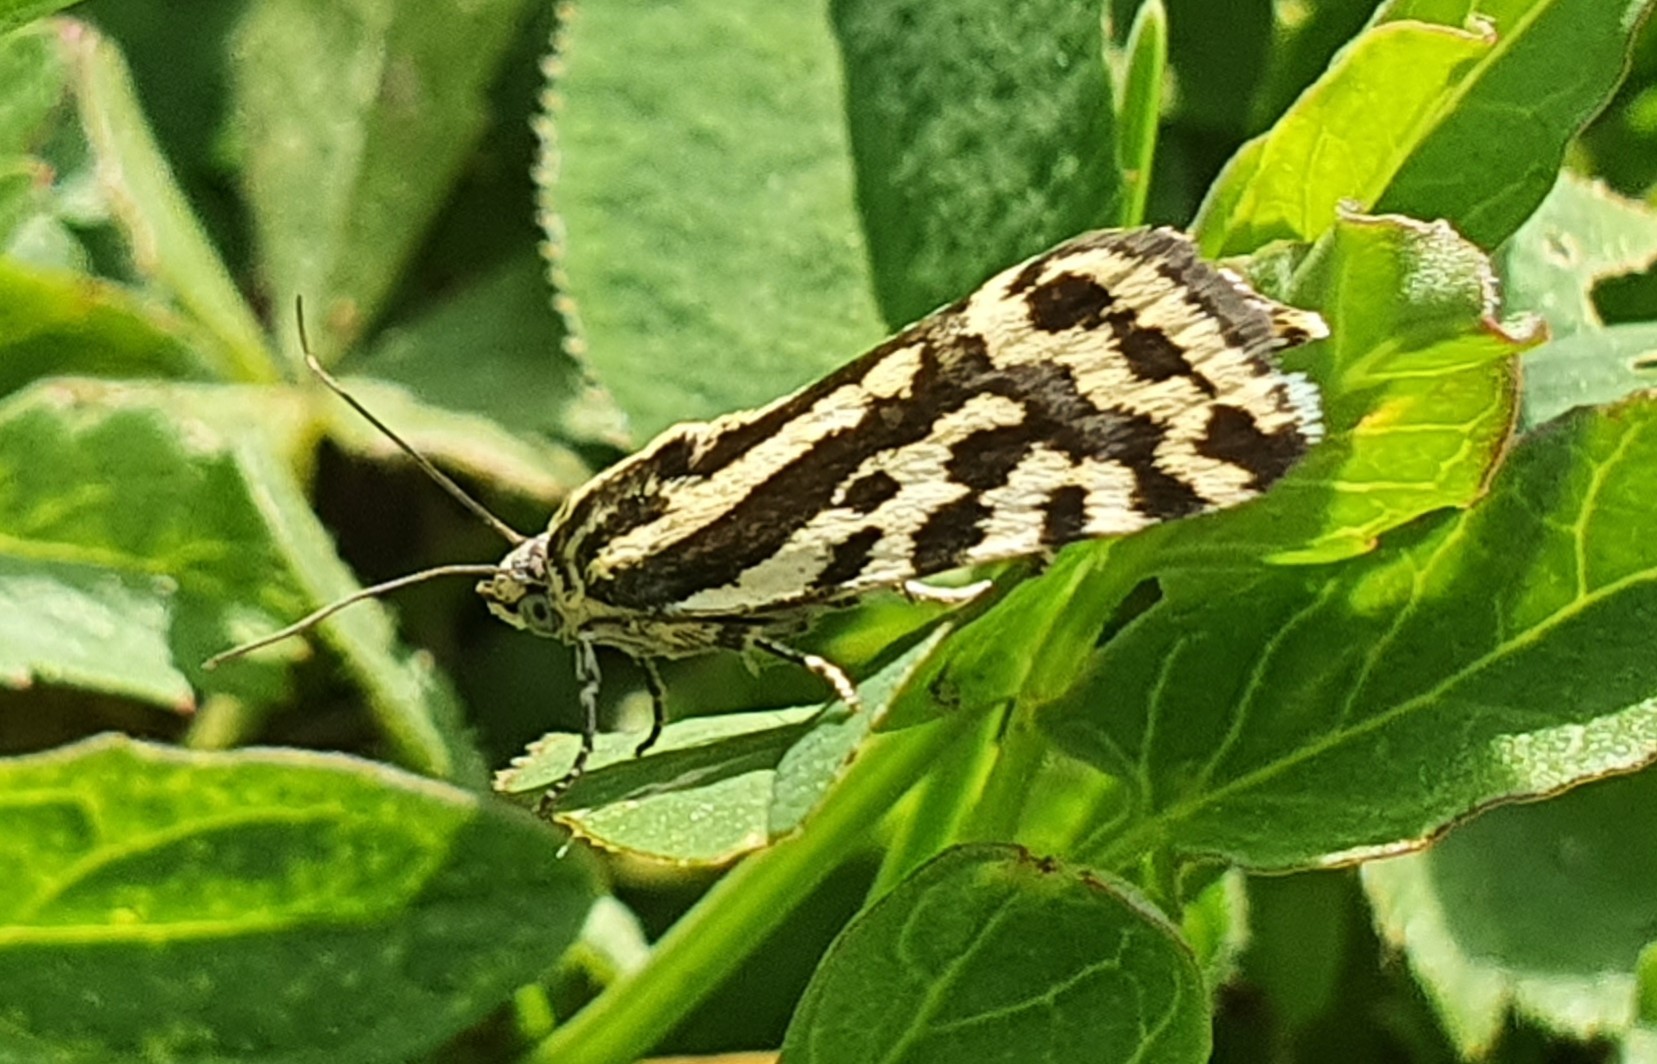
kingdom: Animalia
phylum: Arthropoda
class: Insecta
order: Lepidoptera
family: Noctuidae
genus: Acontia
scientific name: Acontia trabealis
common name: Spotted sulphur
